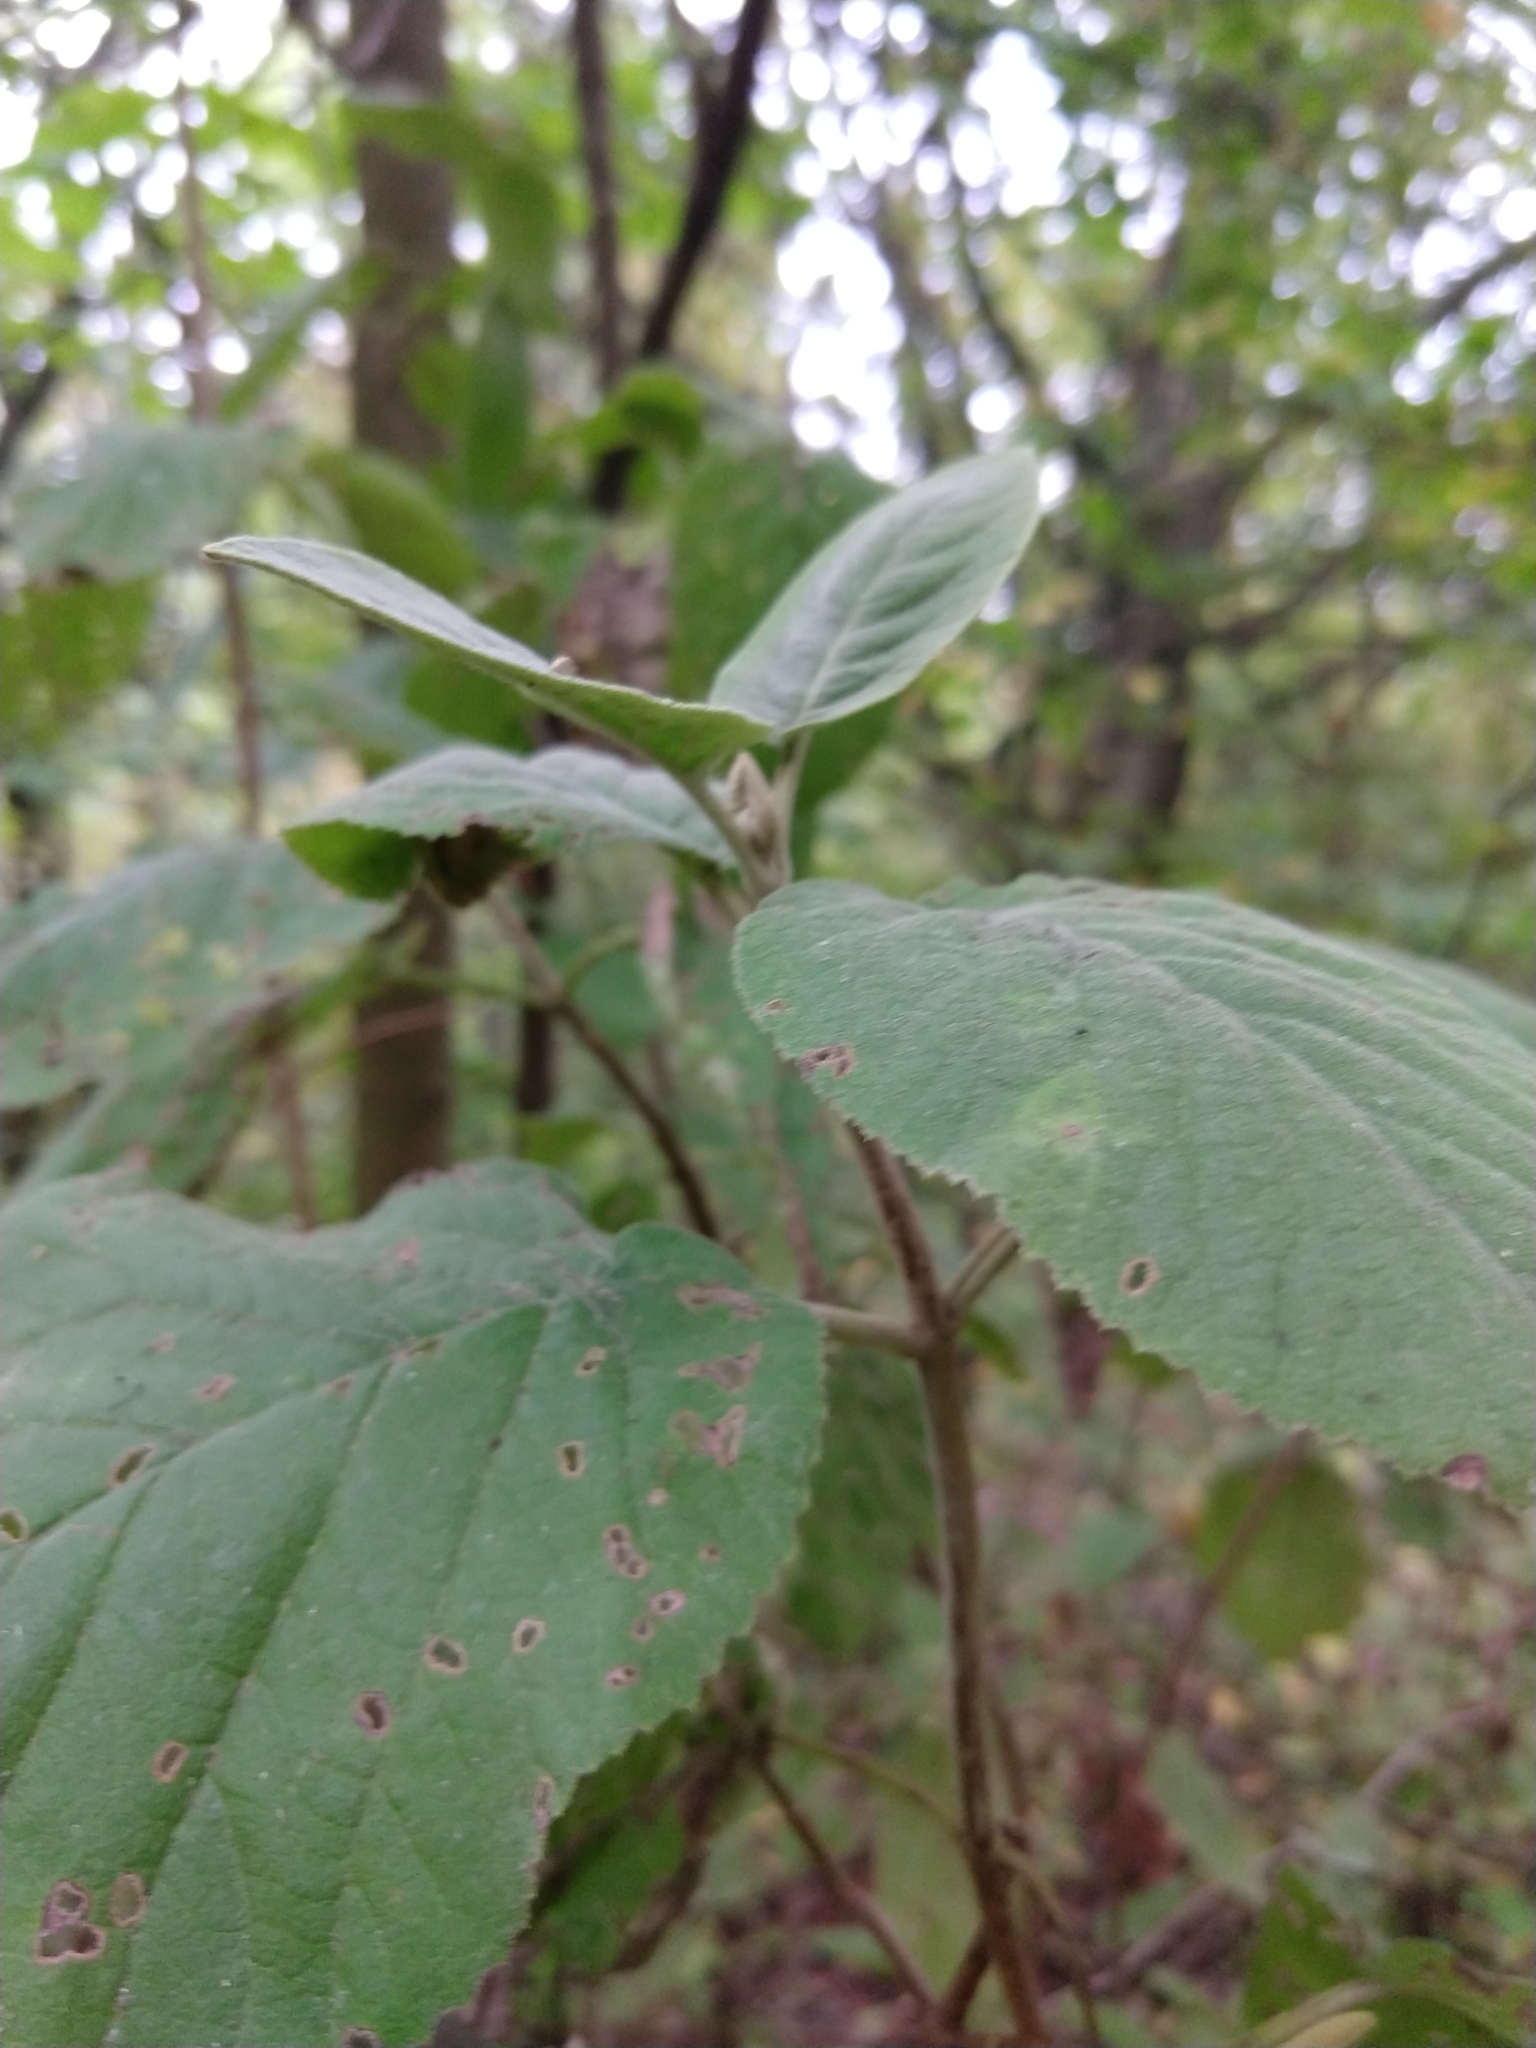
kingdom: Plantae
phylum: Tracheophyta
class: Magnoliopsida
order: Dipsacales
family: Viburnaceae
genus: Viburnum
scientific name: Viburnum lantana
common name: Wayfaring tree
